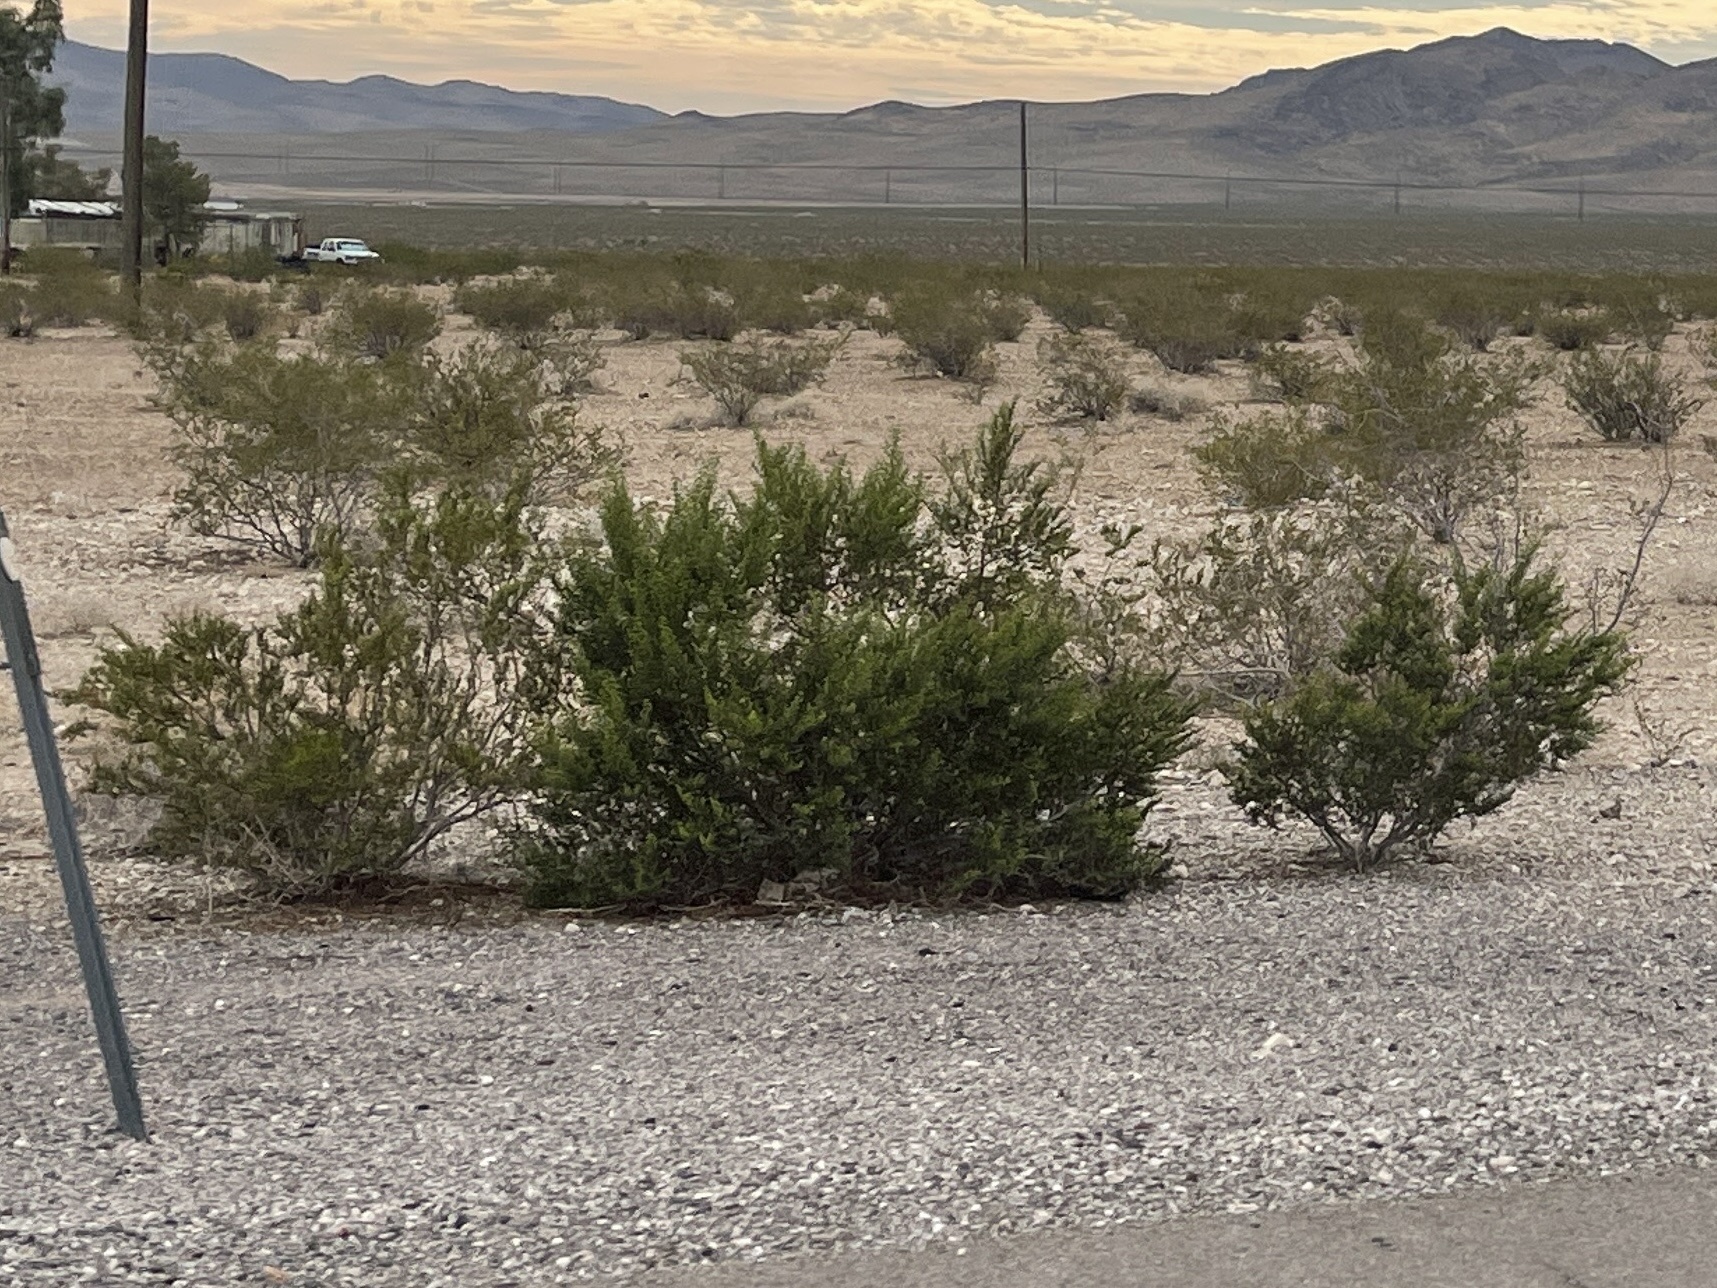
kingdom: Plantae
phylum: Tracheophyta
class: Magnoliopsida
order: Zygophyllales
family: Zygophyllaceae
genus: Larrea
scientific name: Larrea tridentata
